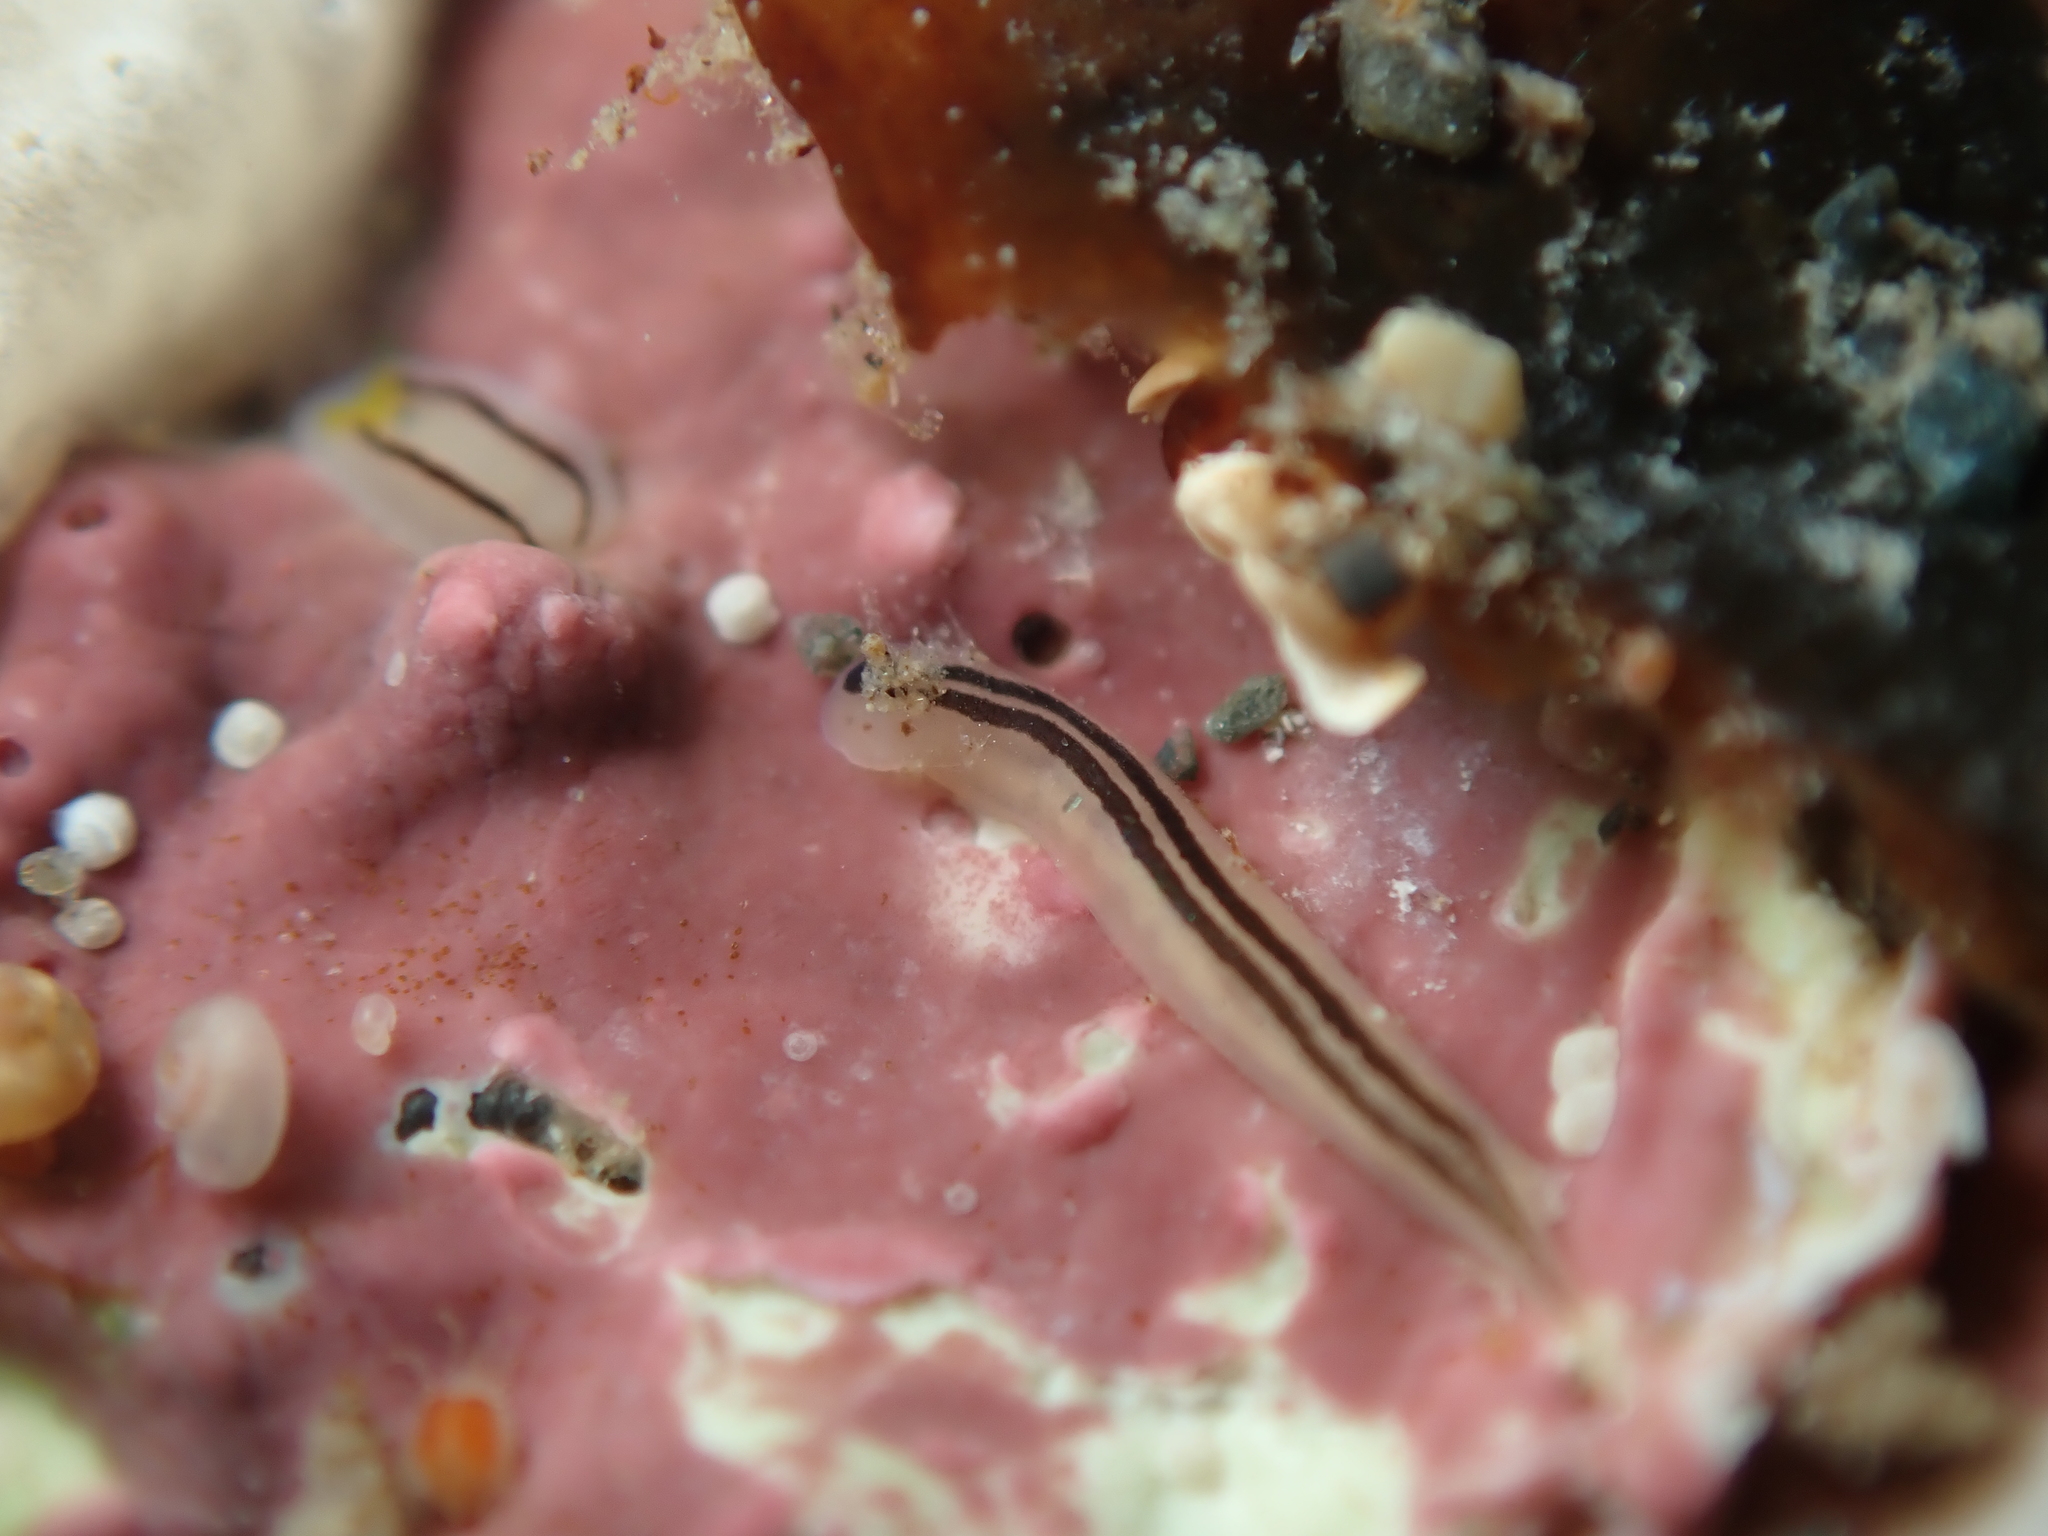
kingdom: Animalia
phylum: Nemertea
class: Hoplonemertea
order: Monostilifera
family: Emplectonematidae
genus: Nemertopsis
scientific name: Nemertopsis bivittata
